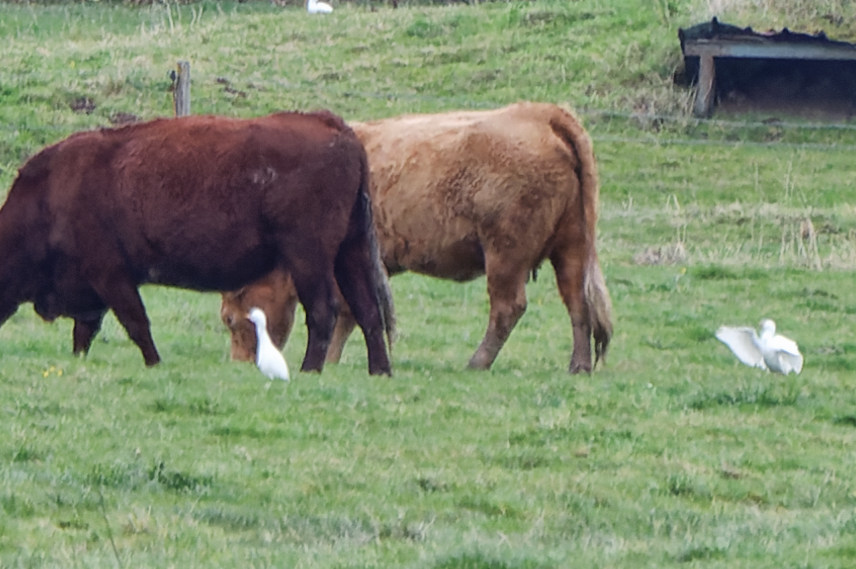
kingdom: Animalia
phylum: Chordata
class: Aves
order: Pelecaniformes
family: Ardeidae
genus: Bubulcus
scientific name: Bubulcus ibis
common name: Cattle egret
